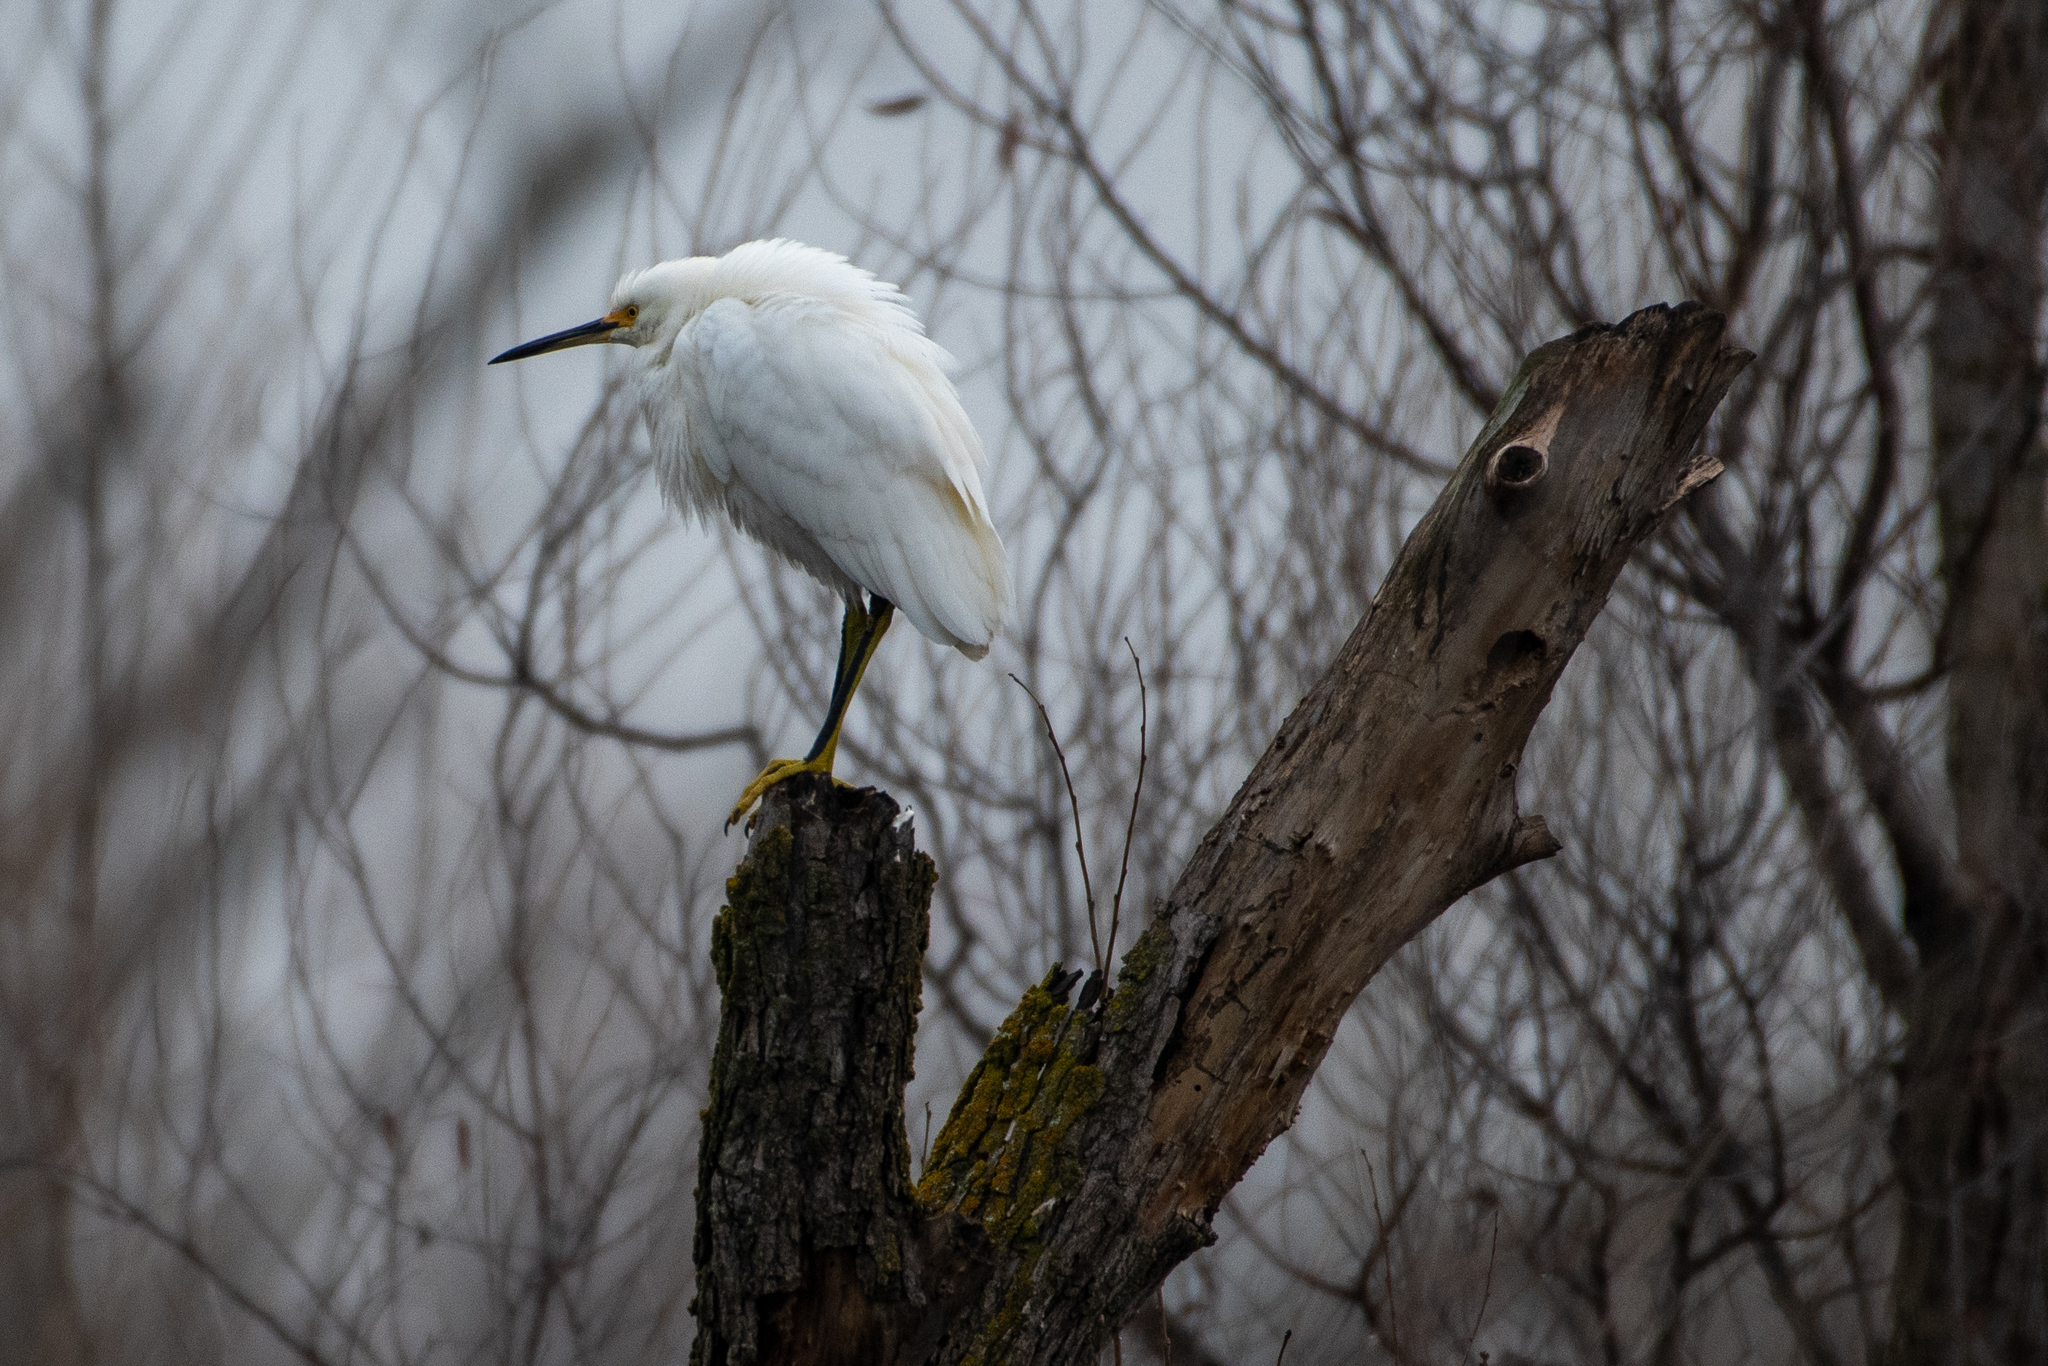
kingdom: Animalia
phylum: Chordata
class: Aves
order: Pelecaniformes
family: Ardeidae
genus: Egretta
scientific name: Egretta thula
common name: Snowy egret
